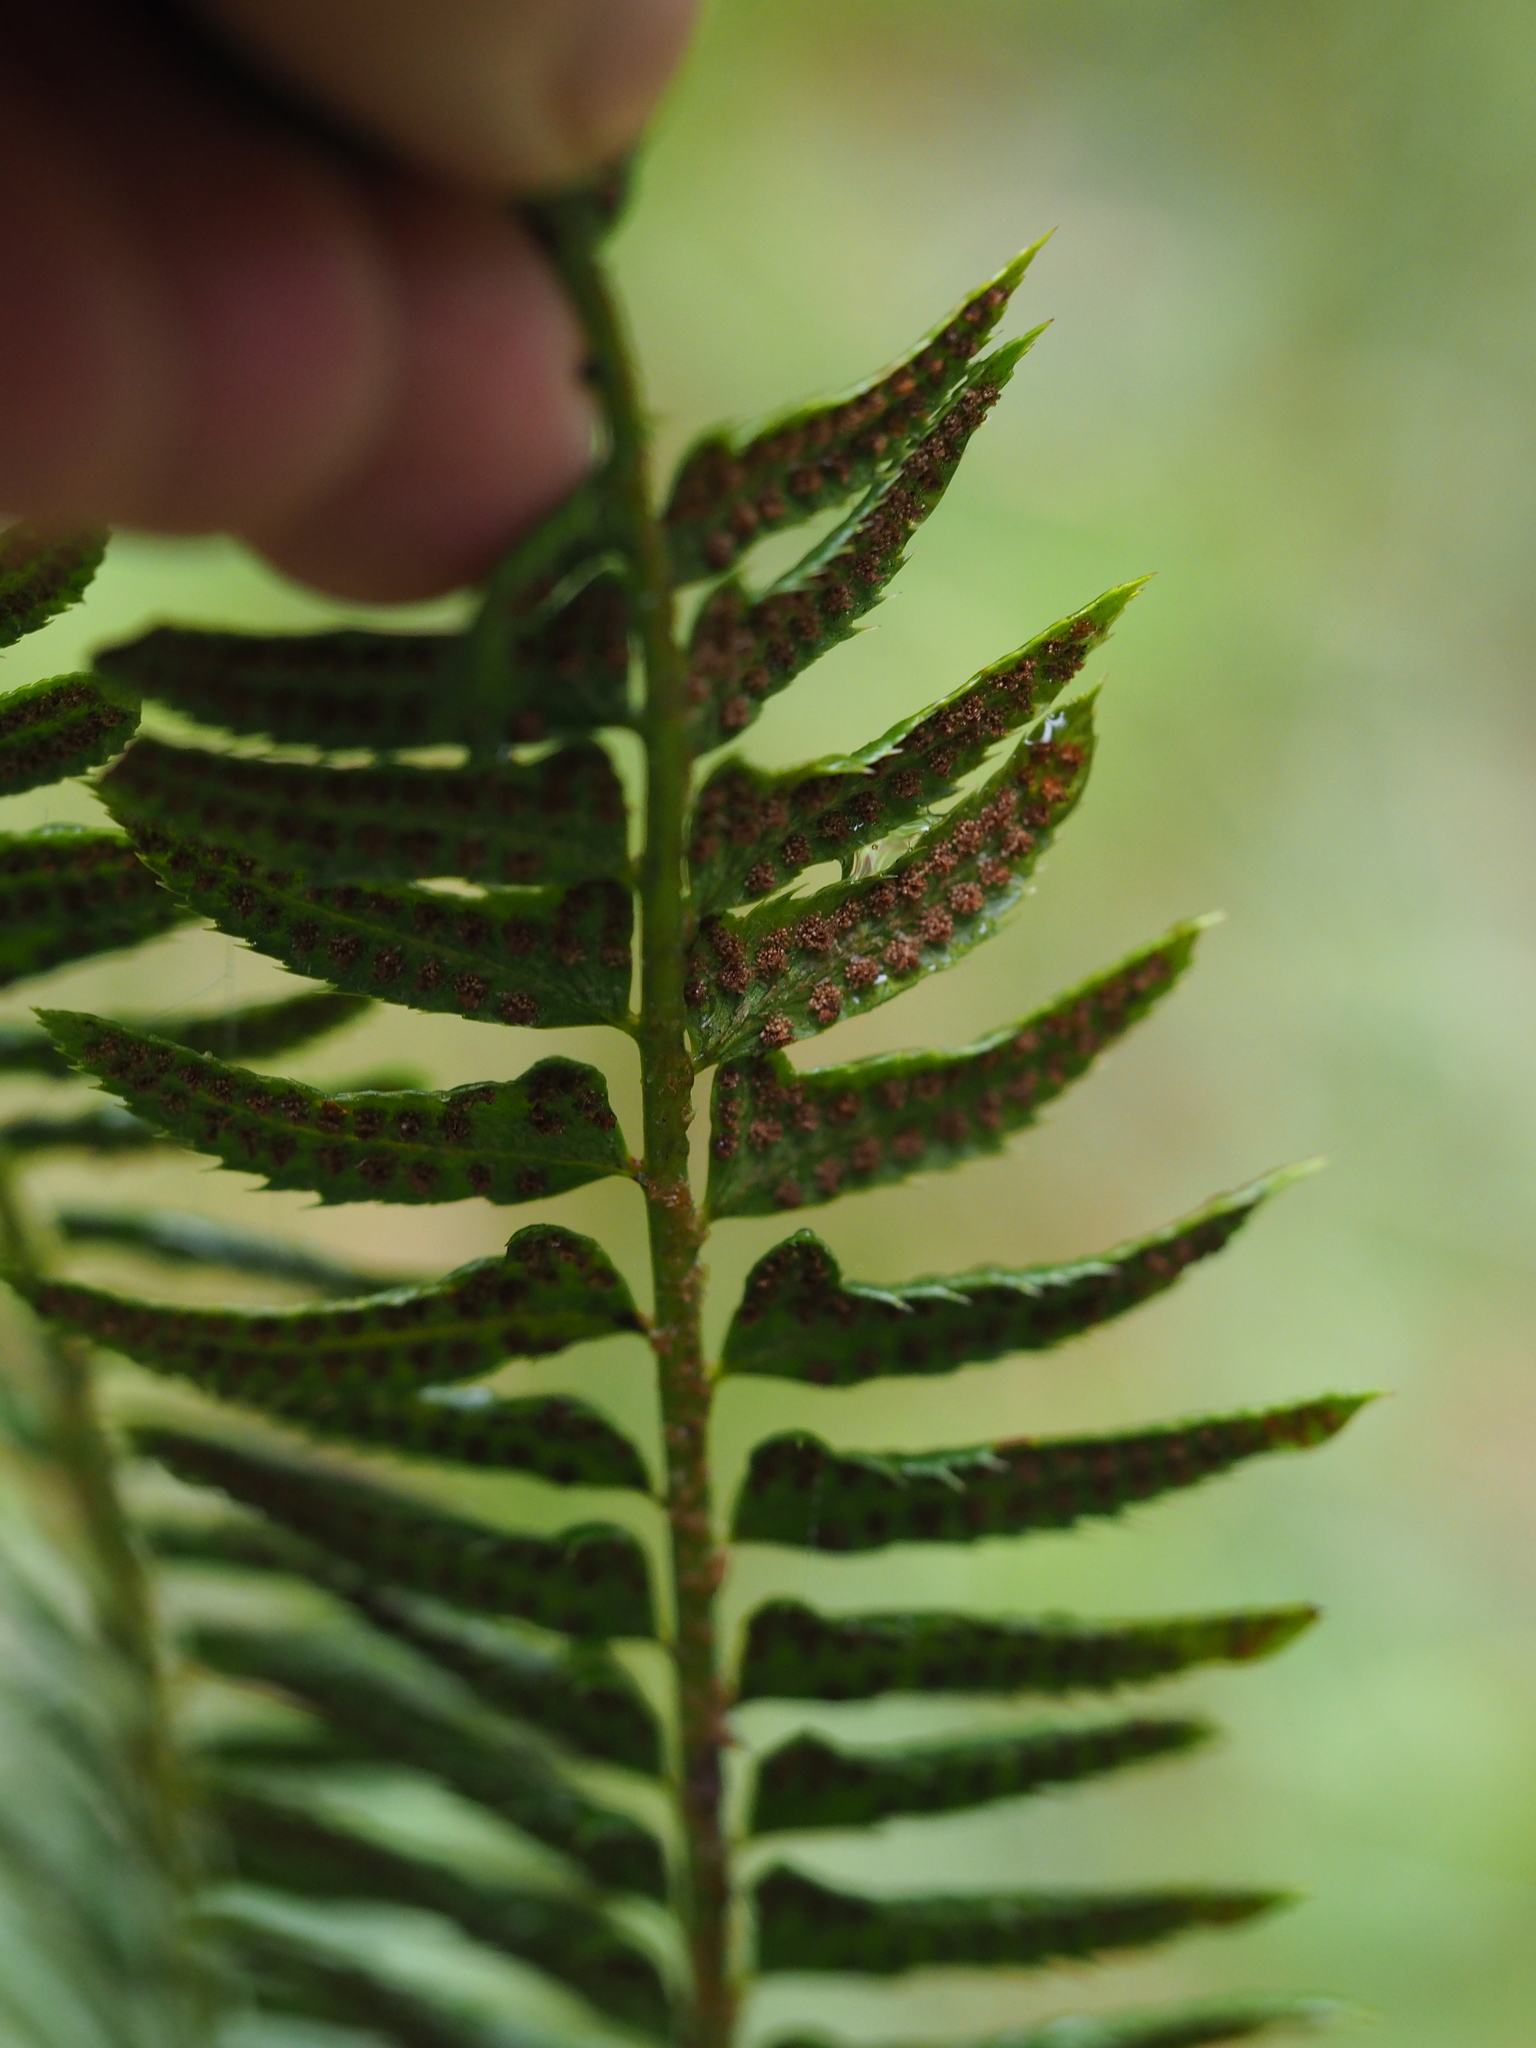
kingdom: Plantae
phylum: Tracheophyta
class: Polypodiopsida
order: Polypodiales
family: Dryopteridaceae
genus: Polystichum
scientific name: Polystichum lonchitis
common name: Holly fern
